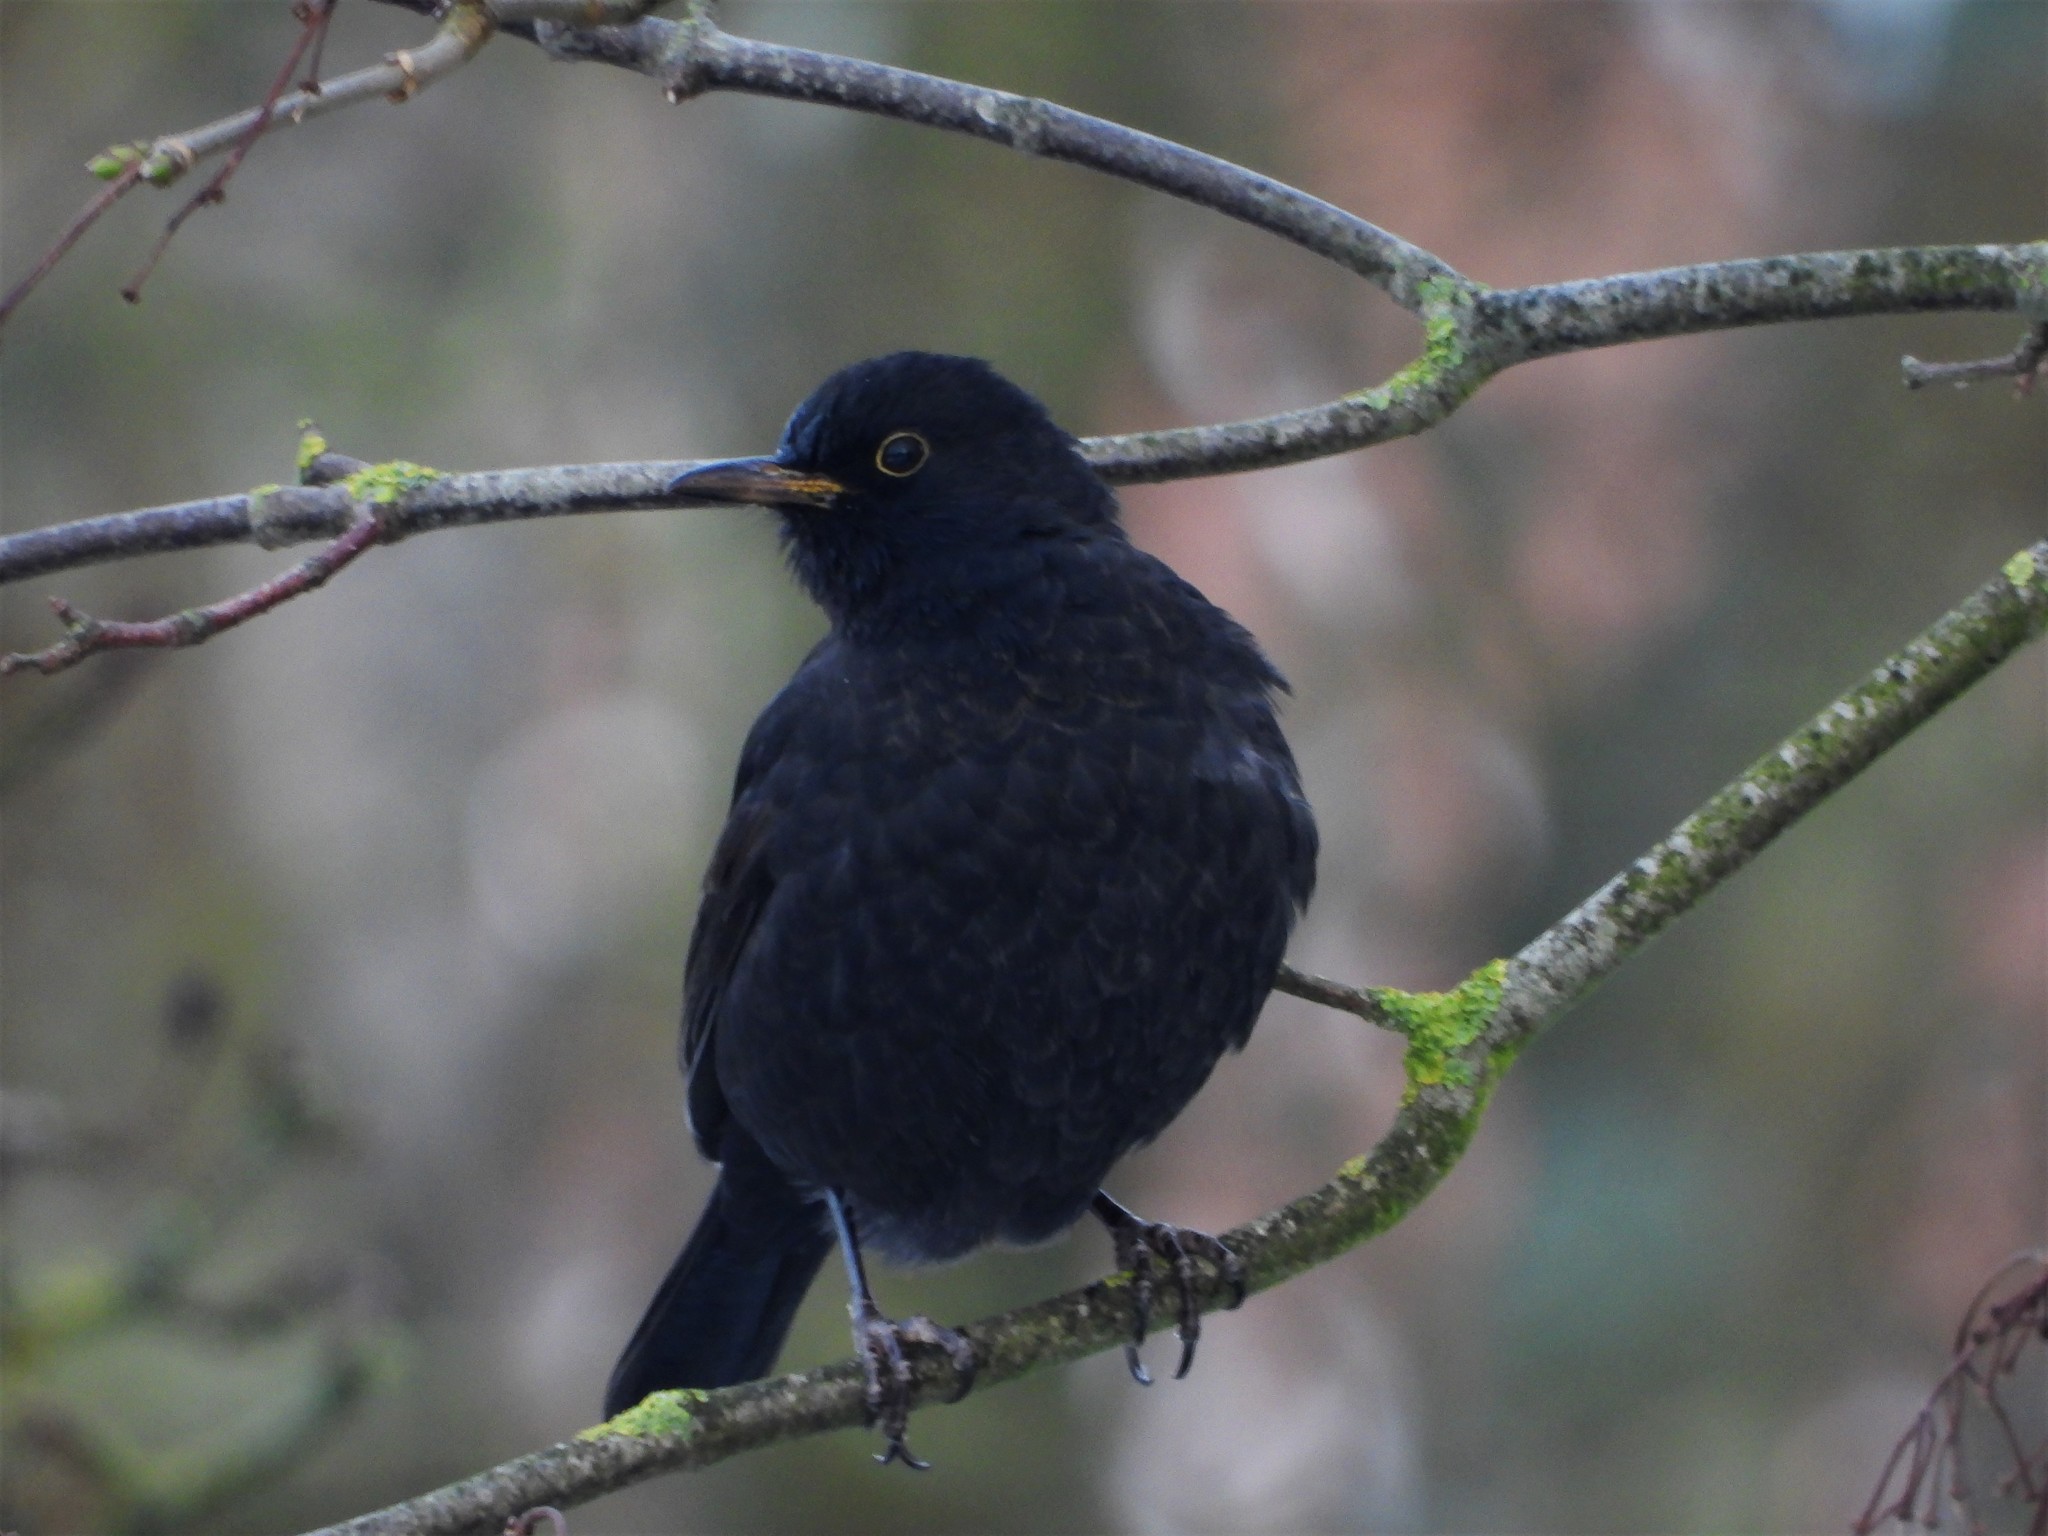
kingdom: Animalia
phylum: Chordata
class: Aves
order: Passeriformes
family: Turdidae
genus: Turdus
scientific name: Turdus merula
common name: Common blackbird
